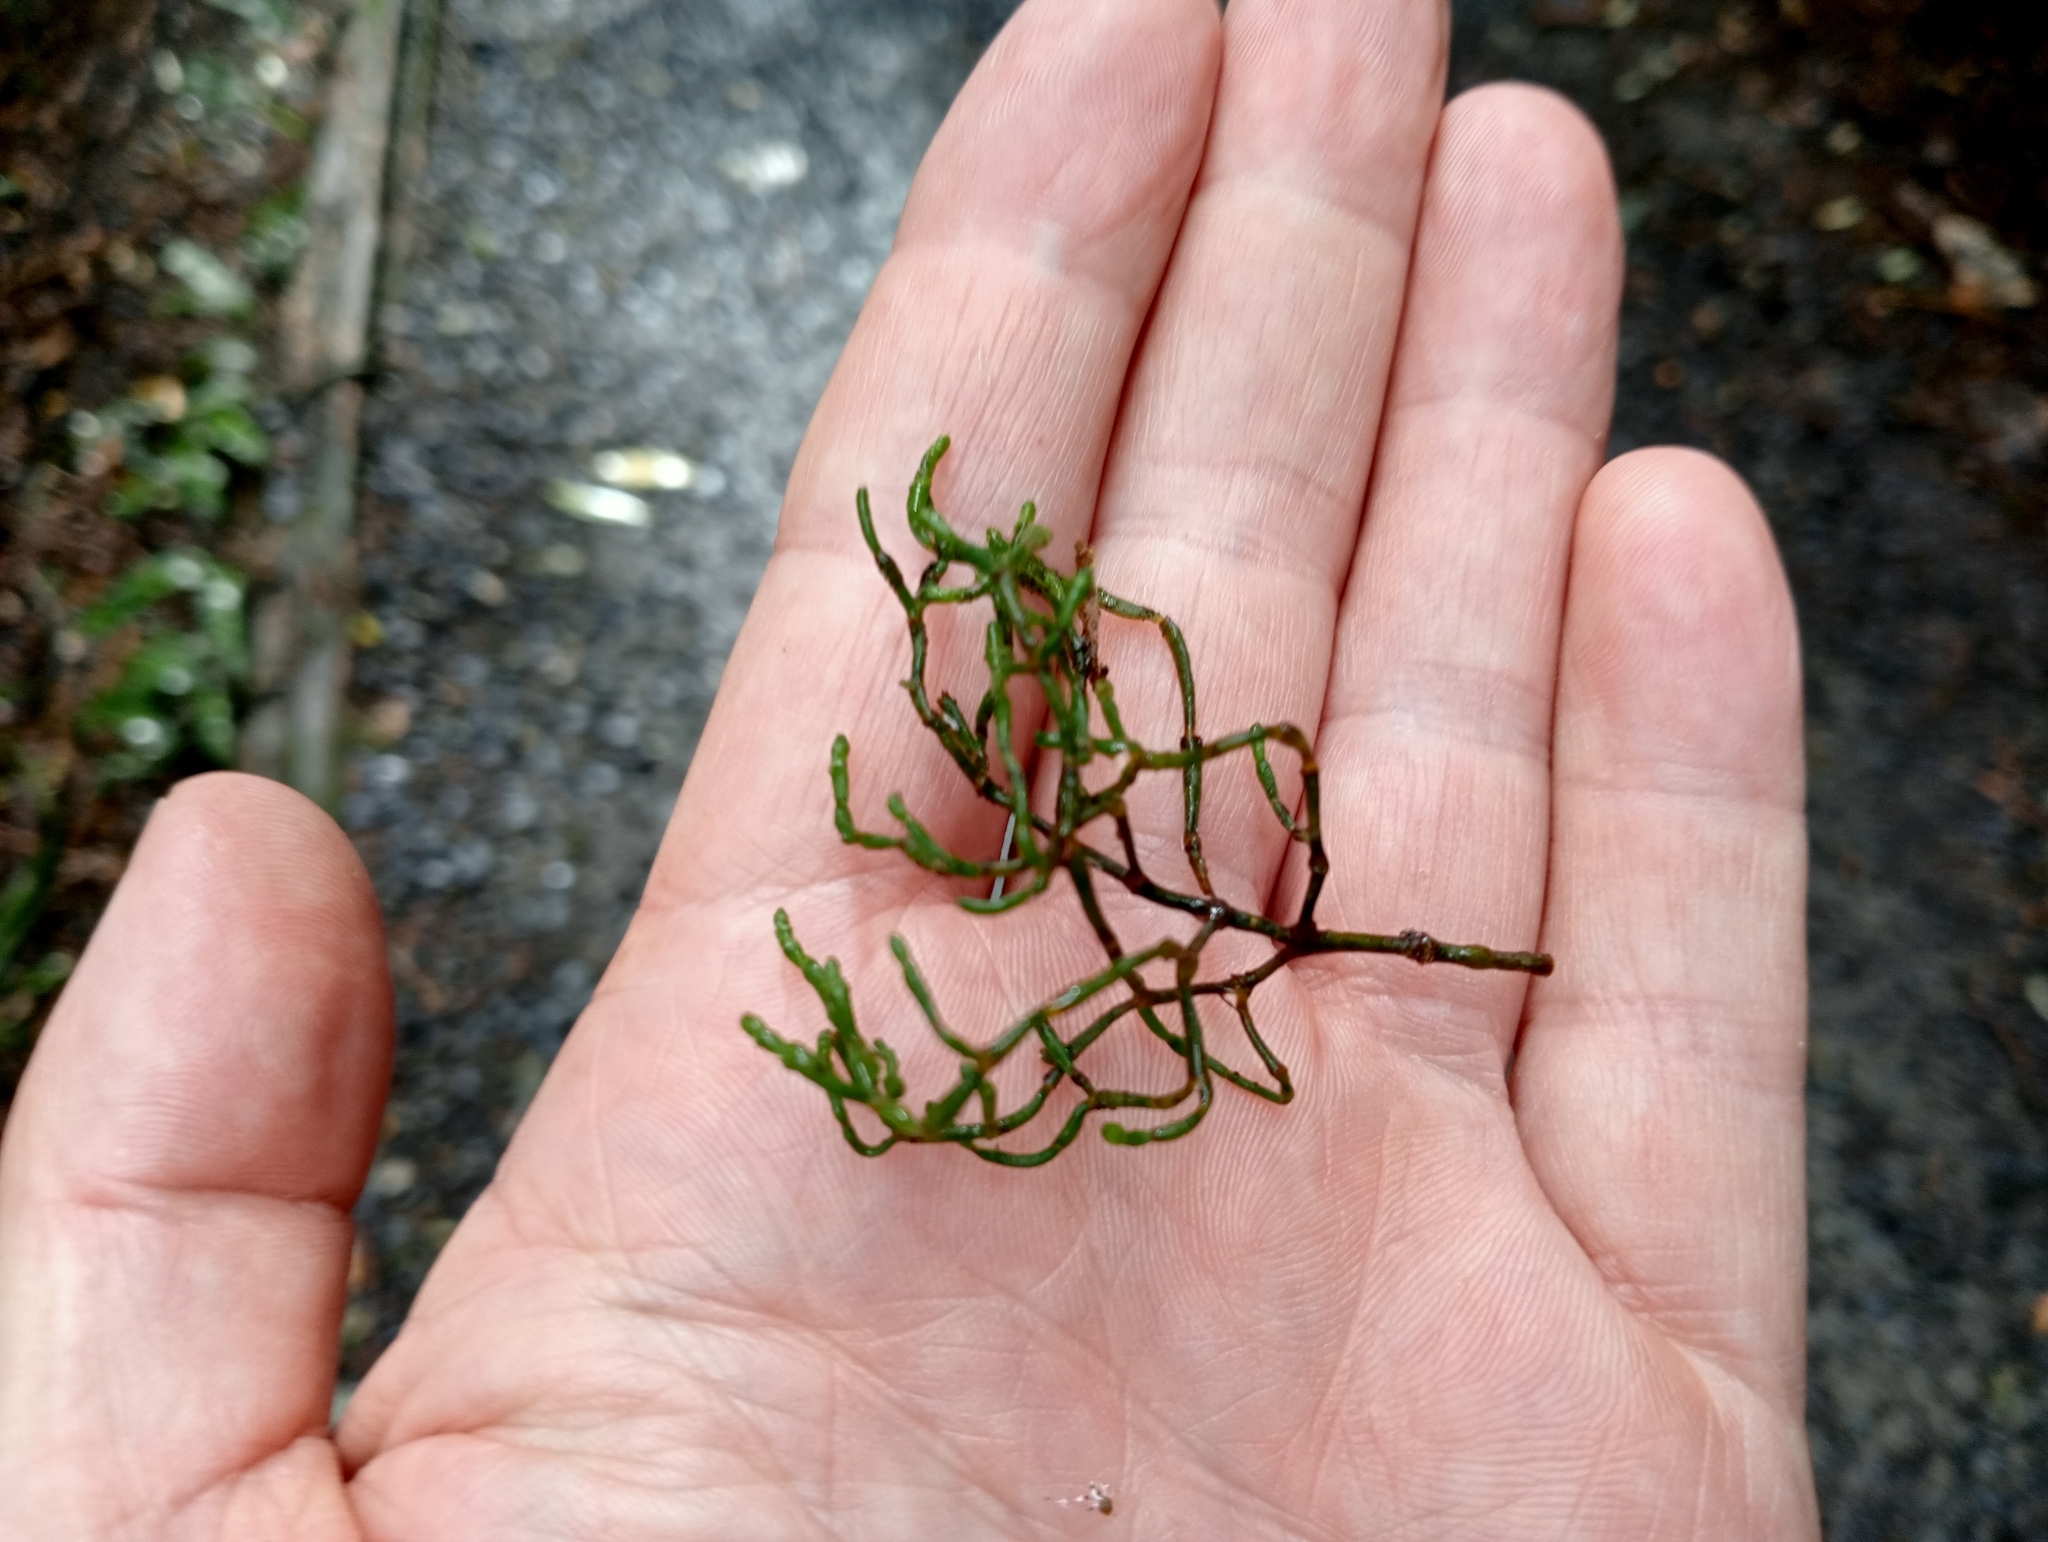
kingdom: Plantae
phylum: Tracheophyta
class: Magnoliopsida
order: Santalales
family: Viscaceae
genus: Korthalsella
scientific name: Korthalsella salicornioides
